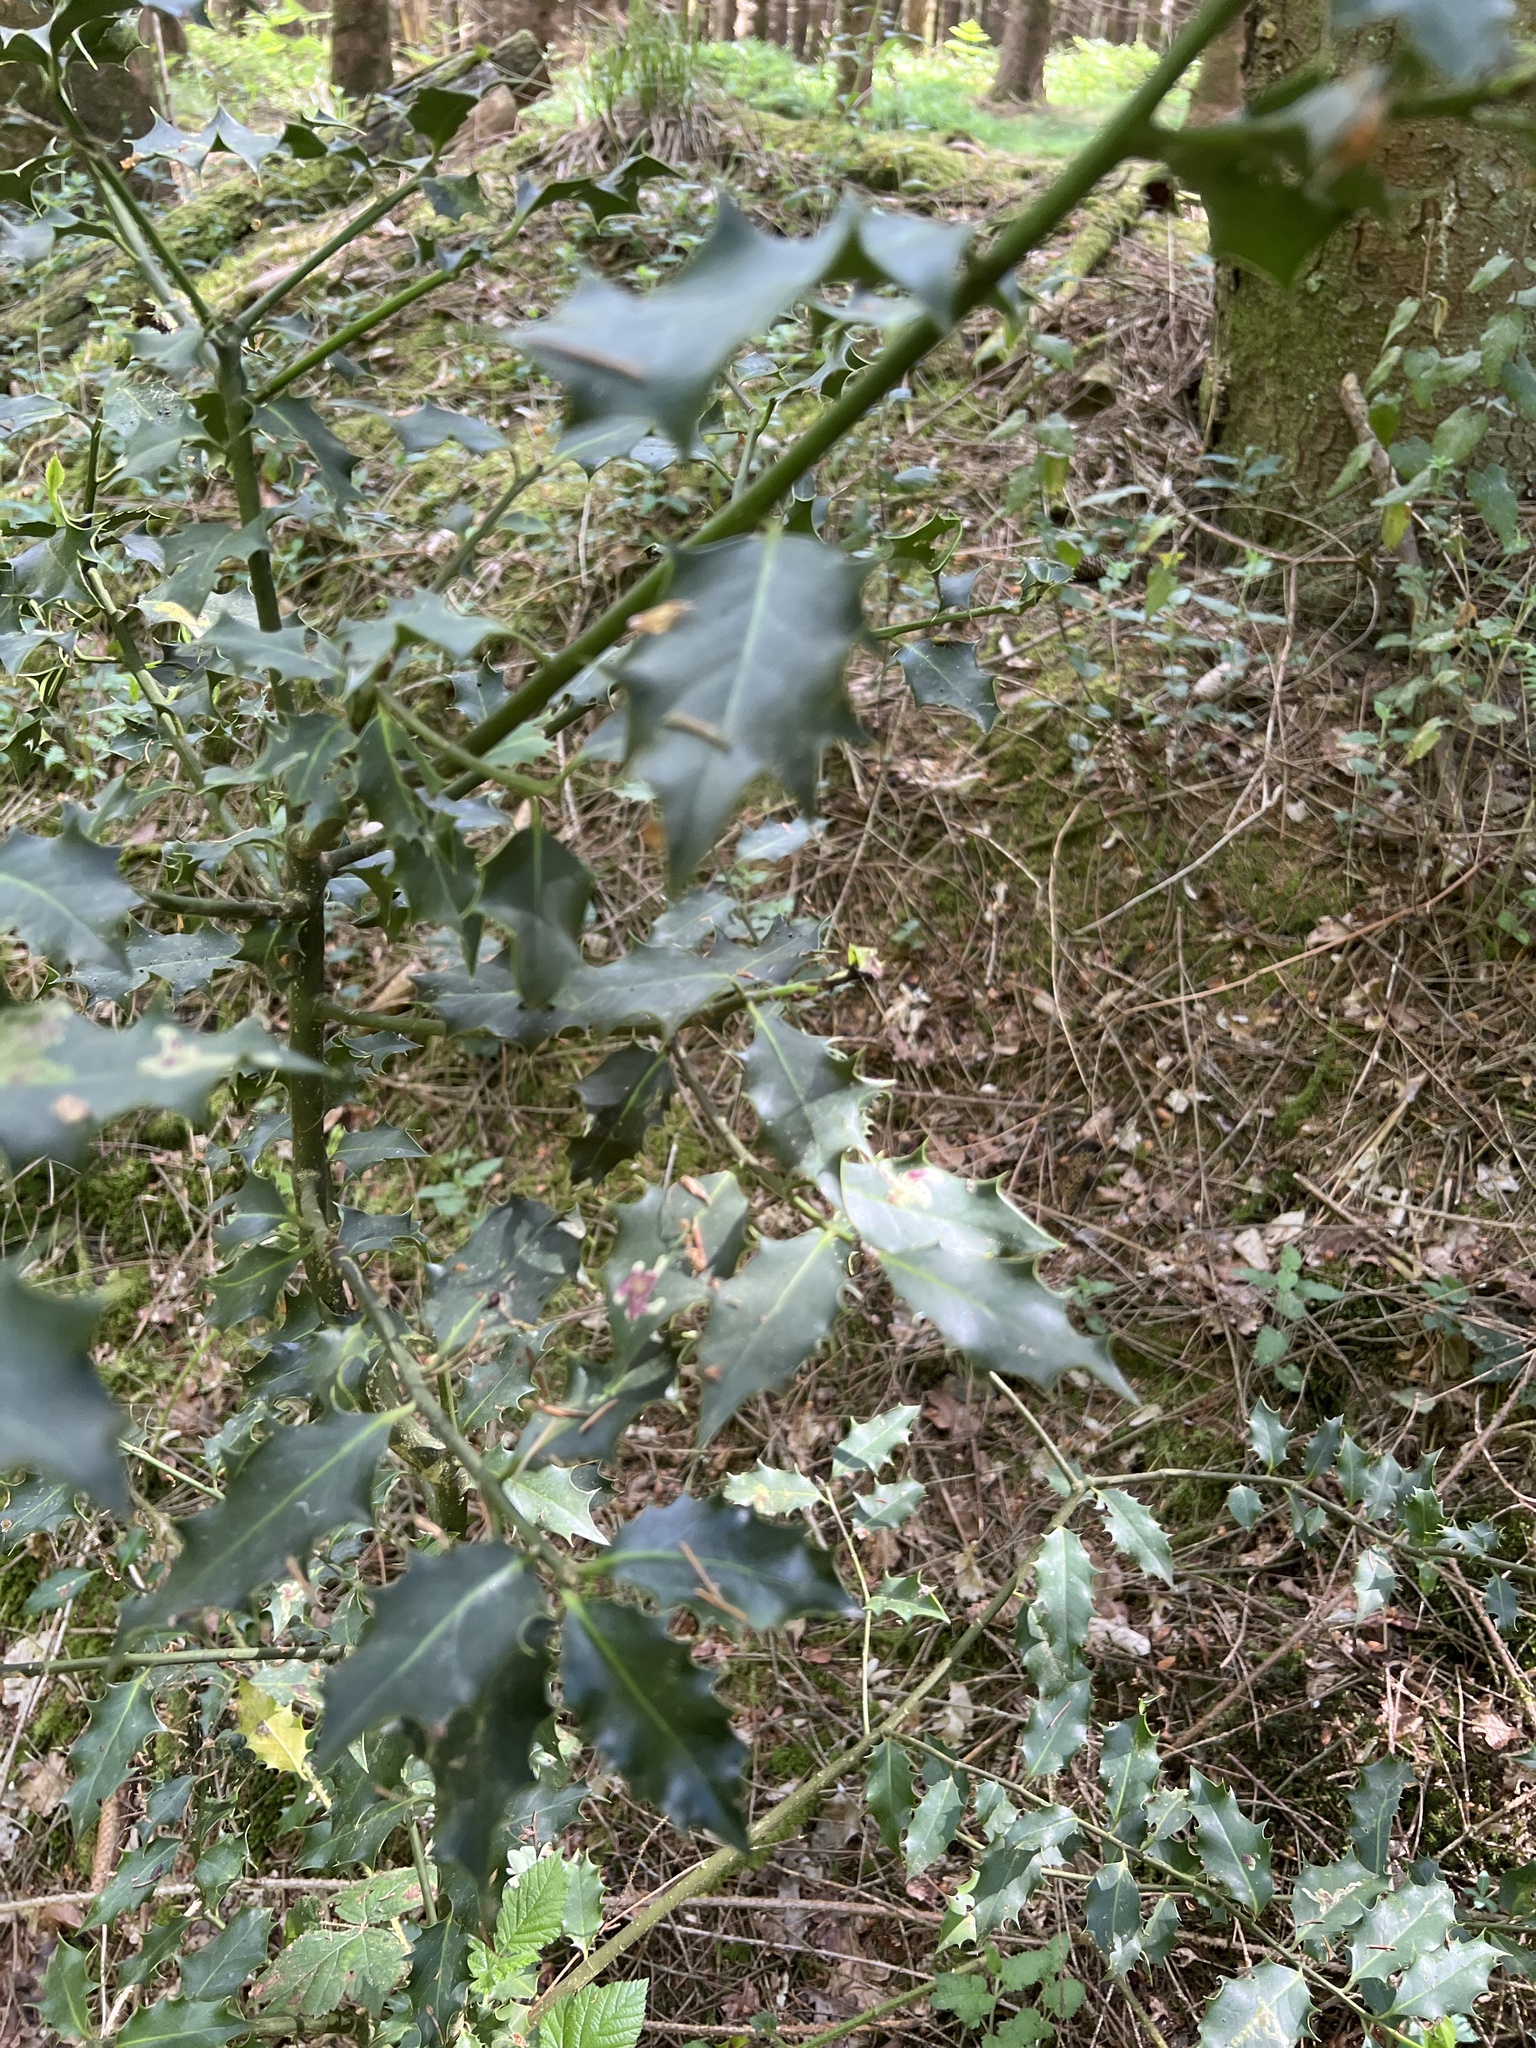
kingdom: Plantae
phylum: Tracheophyta
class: Magnoliopsida
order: Aquifoliales
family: Aquifoliaceae
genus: Ilex
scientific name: Ilex aquifolium
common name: English holly
